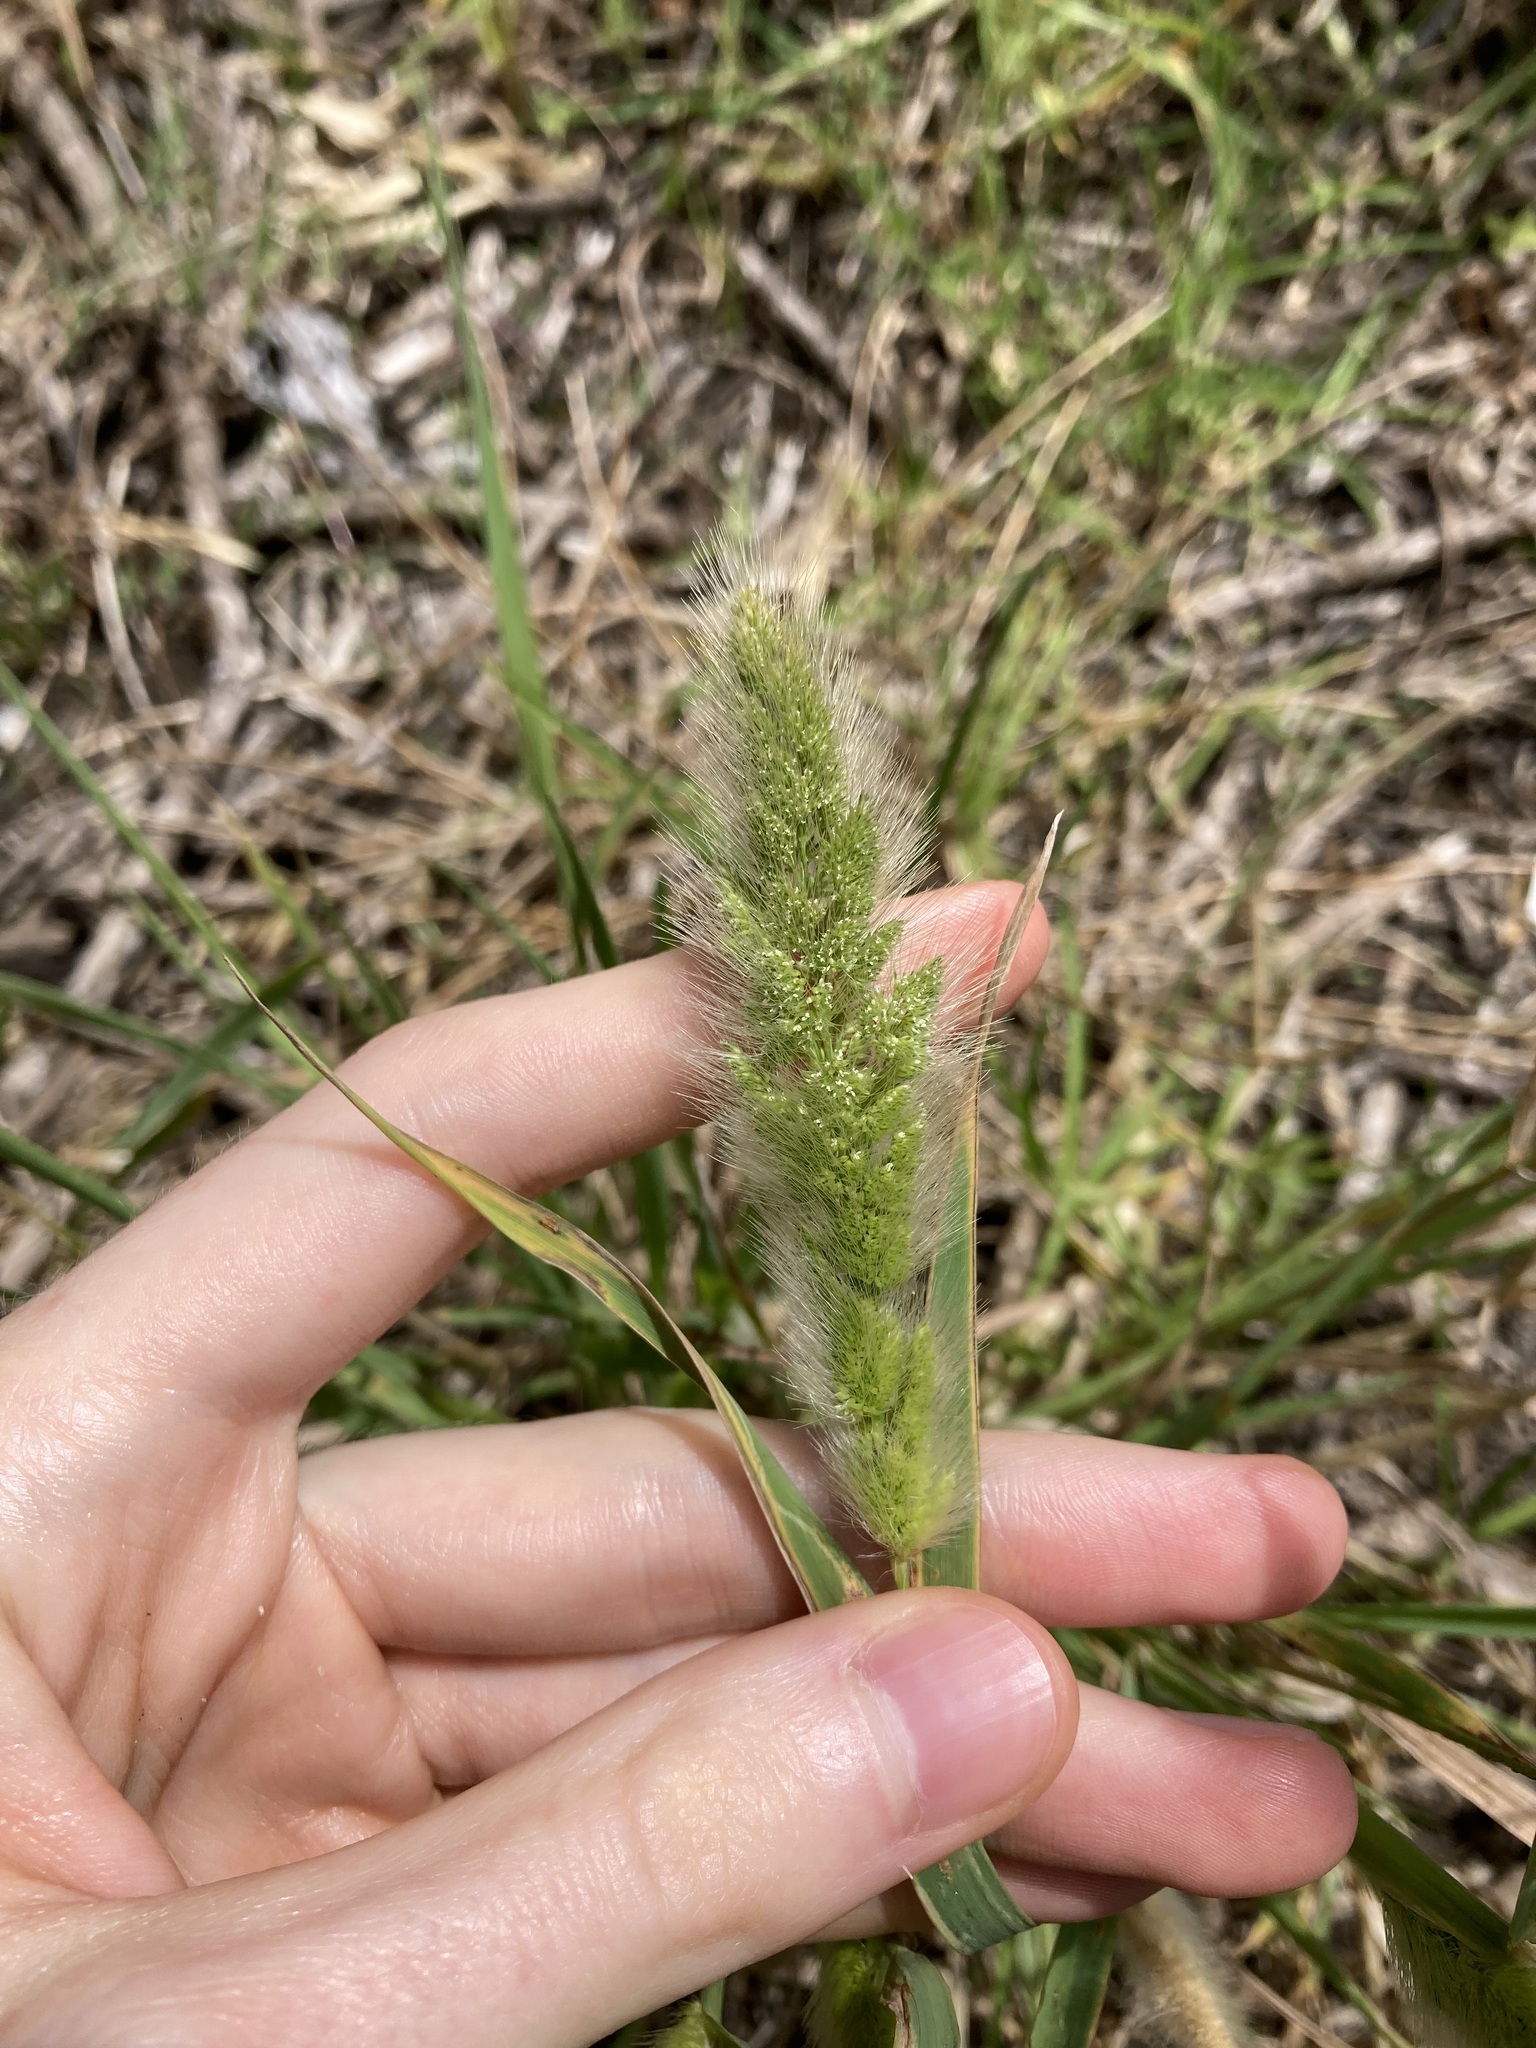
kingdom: Plantae
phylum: Tracheophyta
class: Liliopsida
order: Poales
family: Poaceae
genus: Polypogon
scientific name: Polypogon monspeliensis
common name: Annual rabbitsfoot grass
